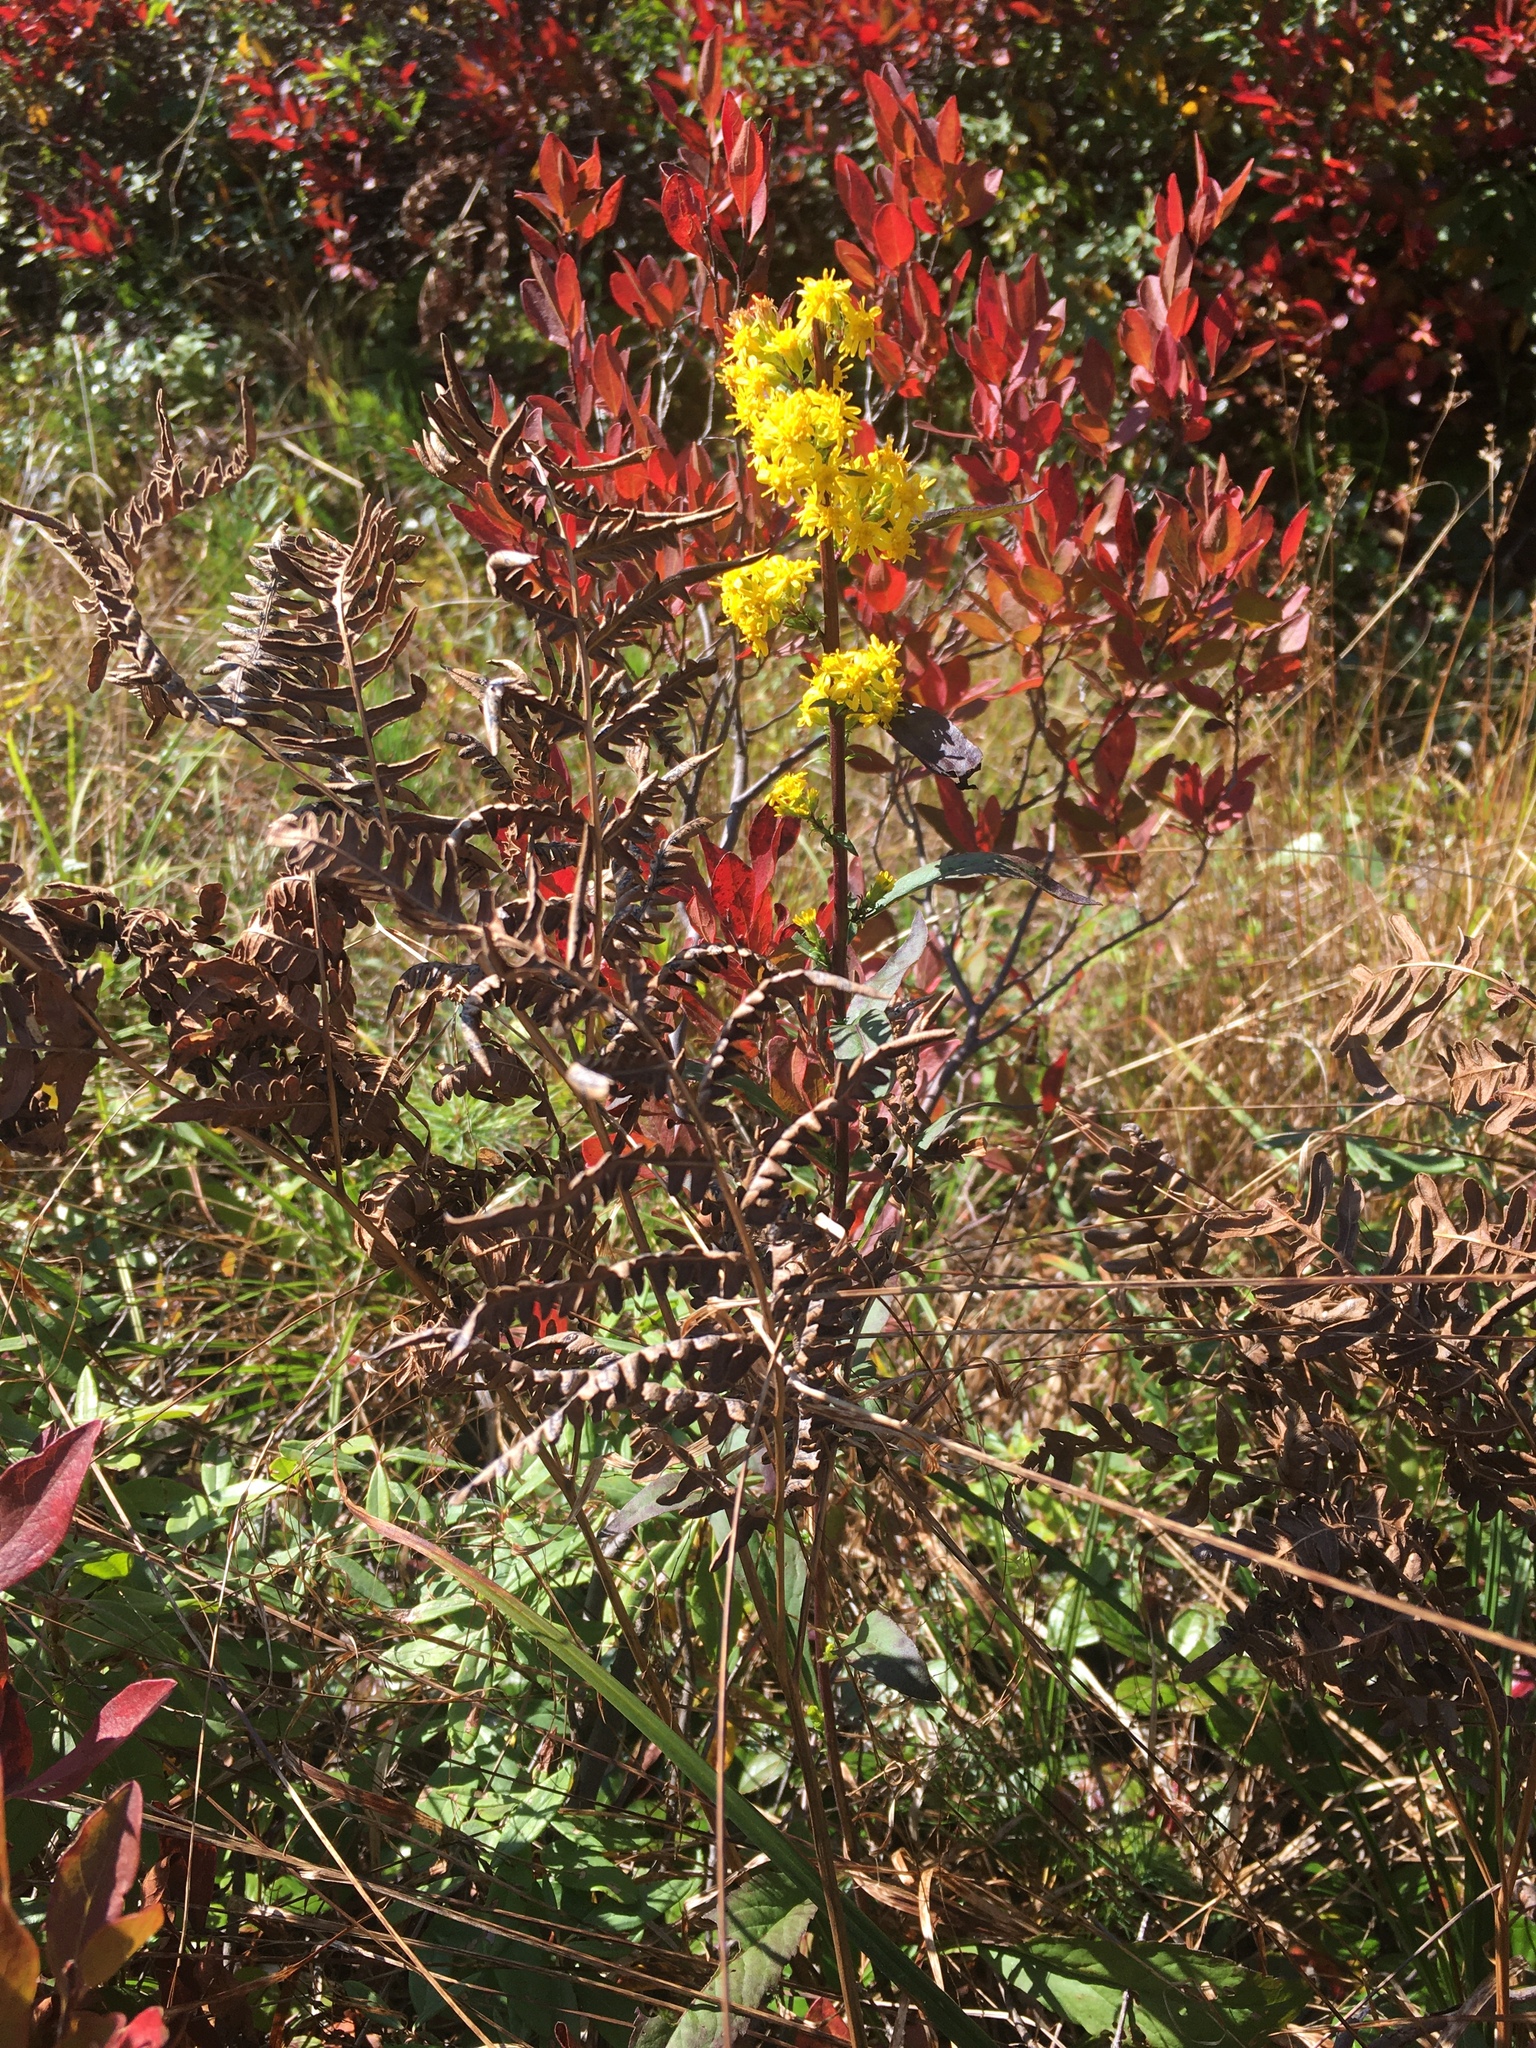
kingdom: Plantae
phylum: Tracheophyta
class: Magnoliopsida
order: Asterales
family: Asteraceae
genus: Solidago
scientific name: Solidago speciosa
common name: Showy goldenrod
